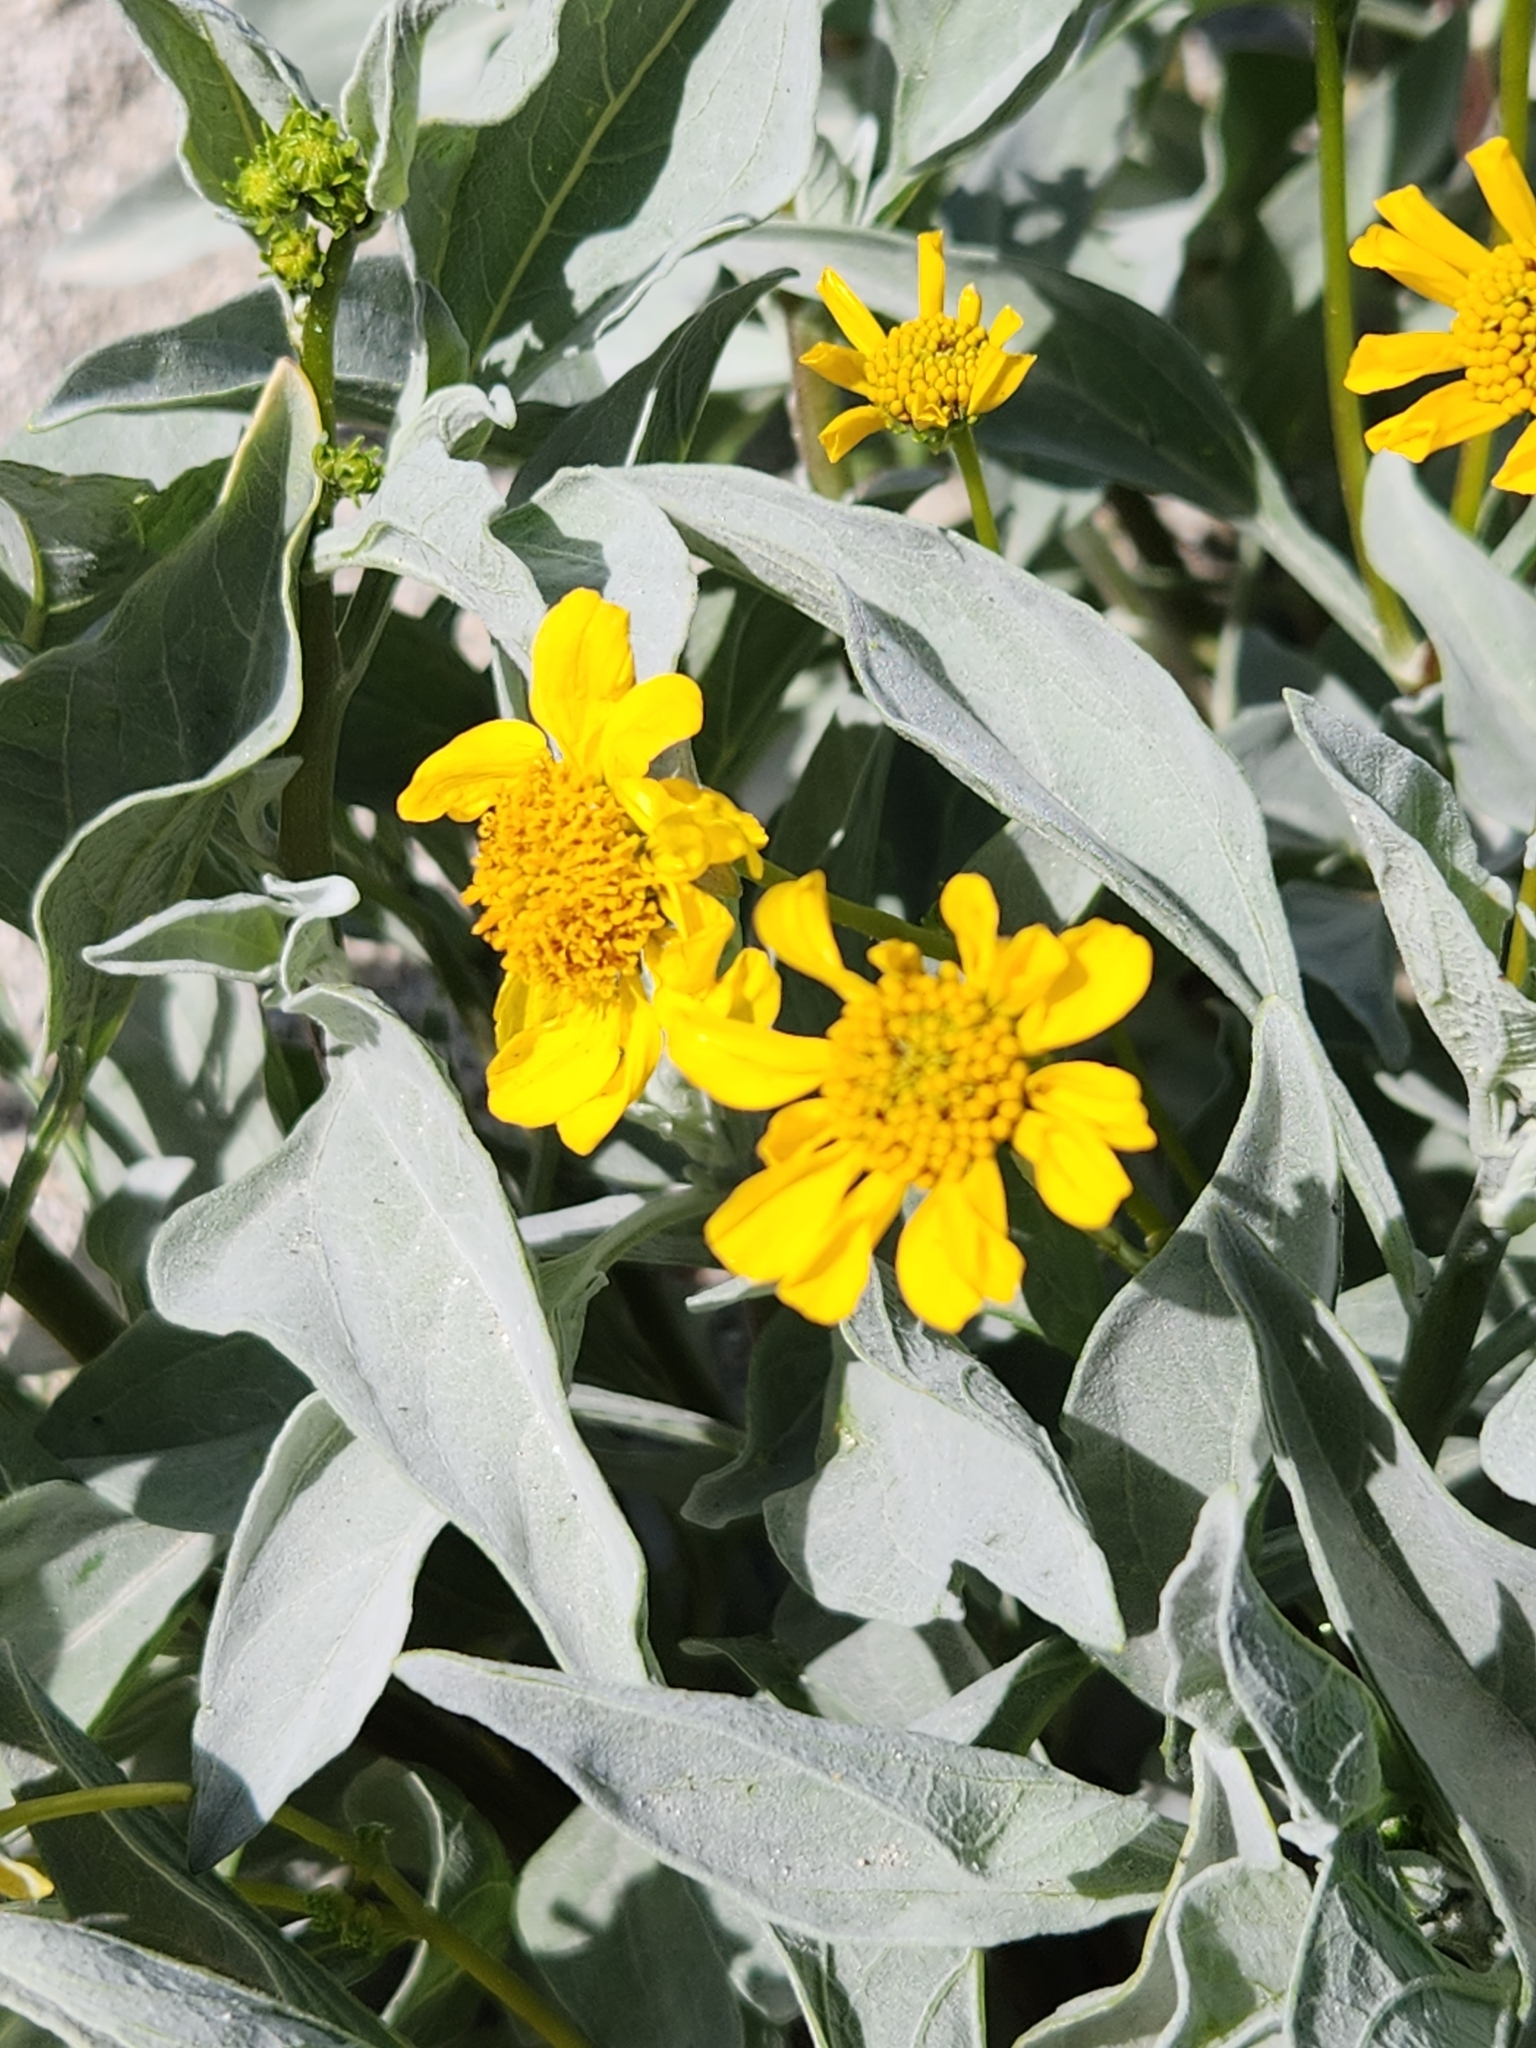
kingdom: Plantae
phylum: Tracheophyta
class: Magnoliopsida
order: Asterales
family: Asteraceae
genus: Encelia
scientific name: Encelia farinosa
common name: Brittlebush
